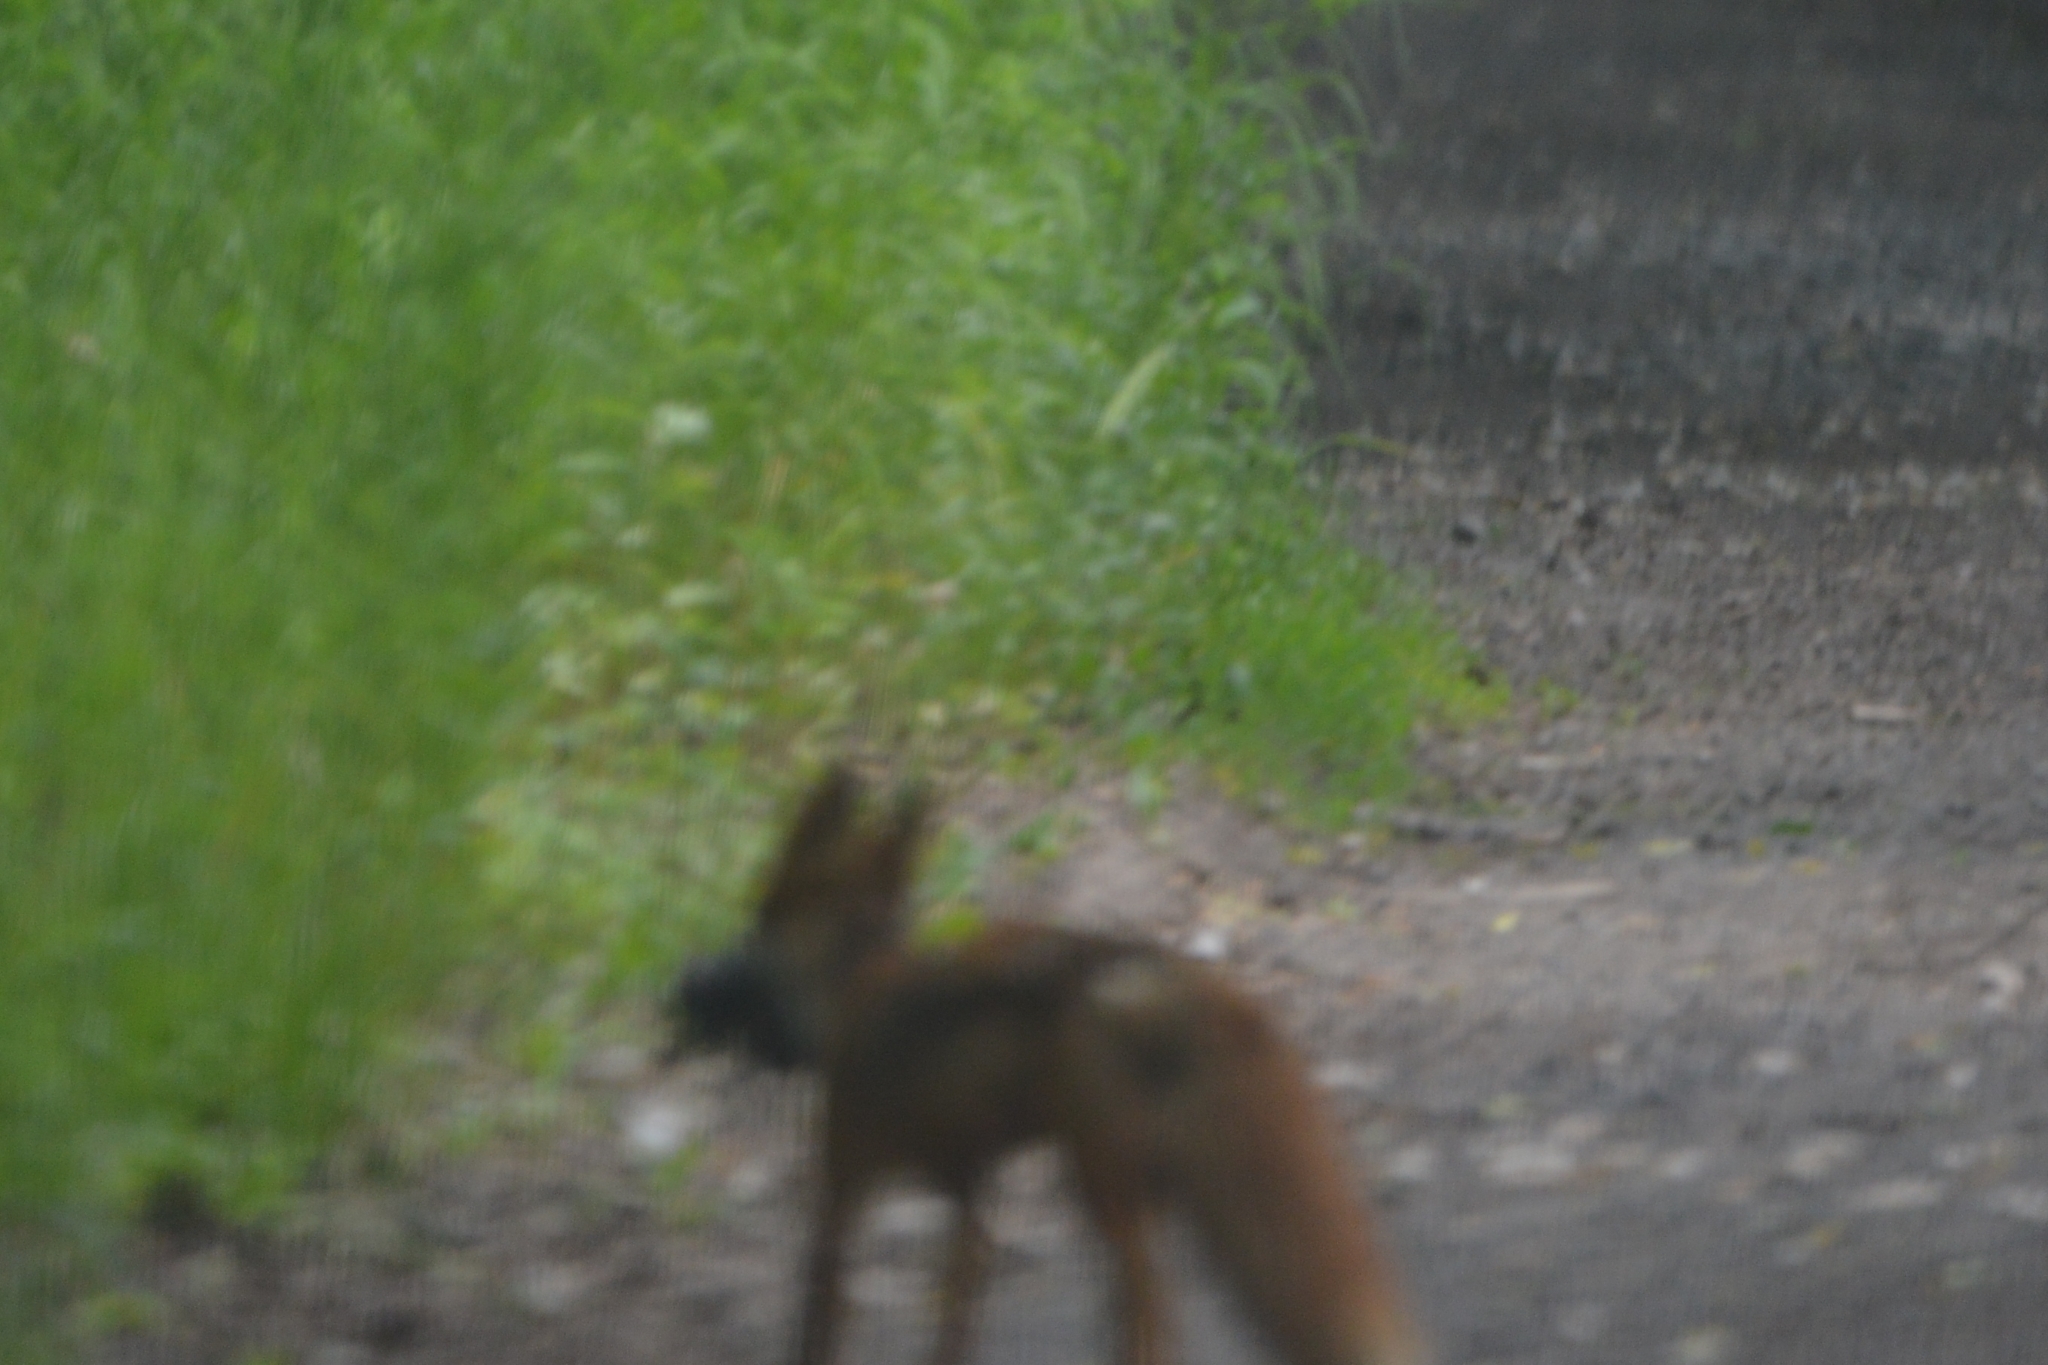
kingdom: Animalia
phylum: Chordata
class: Mammalia
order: Carnivora
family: Canidae
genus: Vulpes
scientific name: Vulpes vulpes
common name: Red fox
